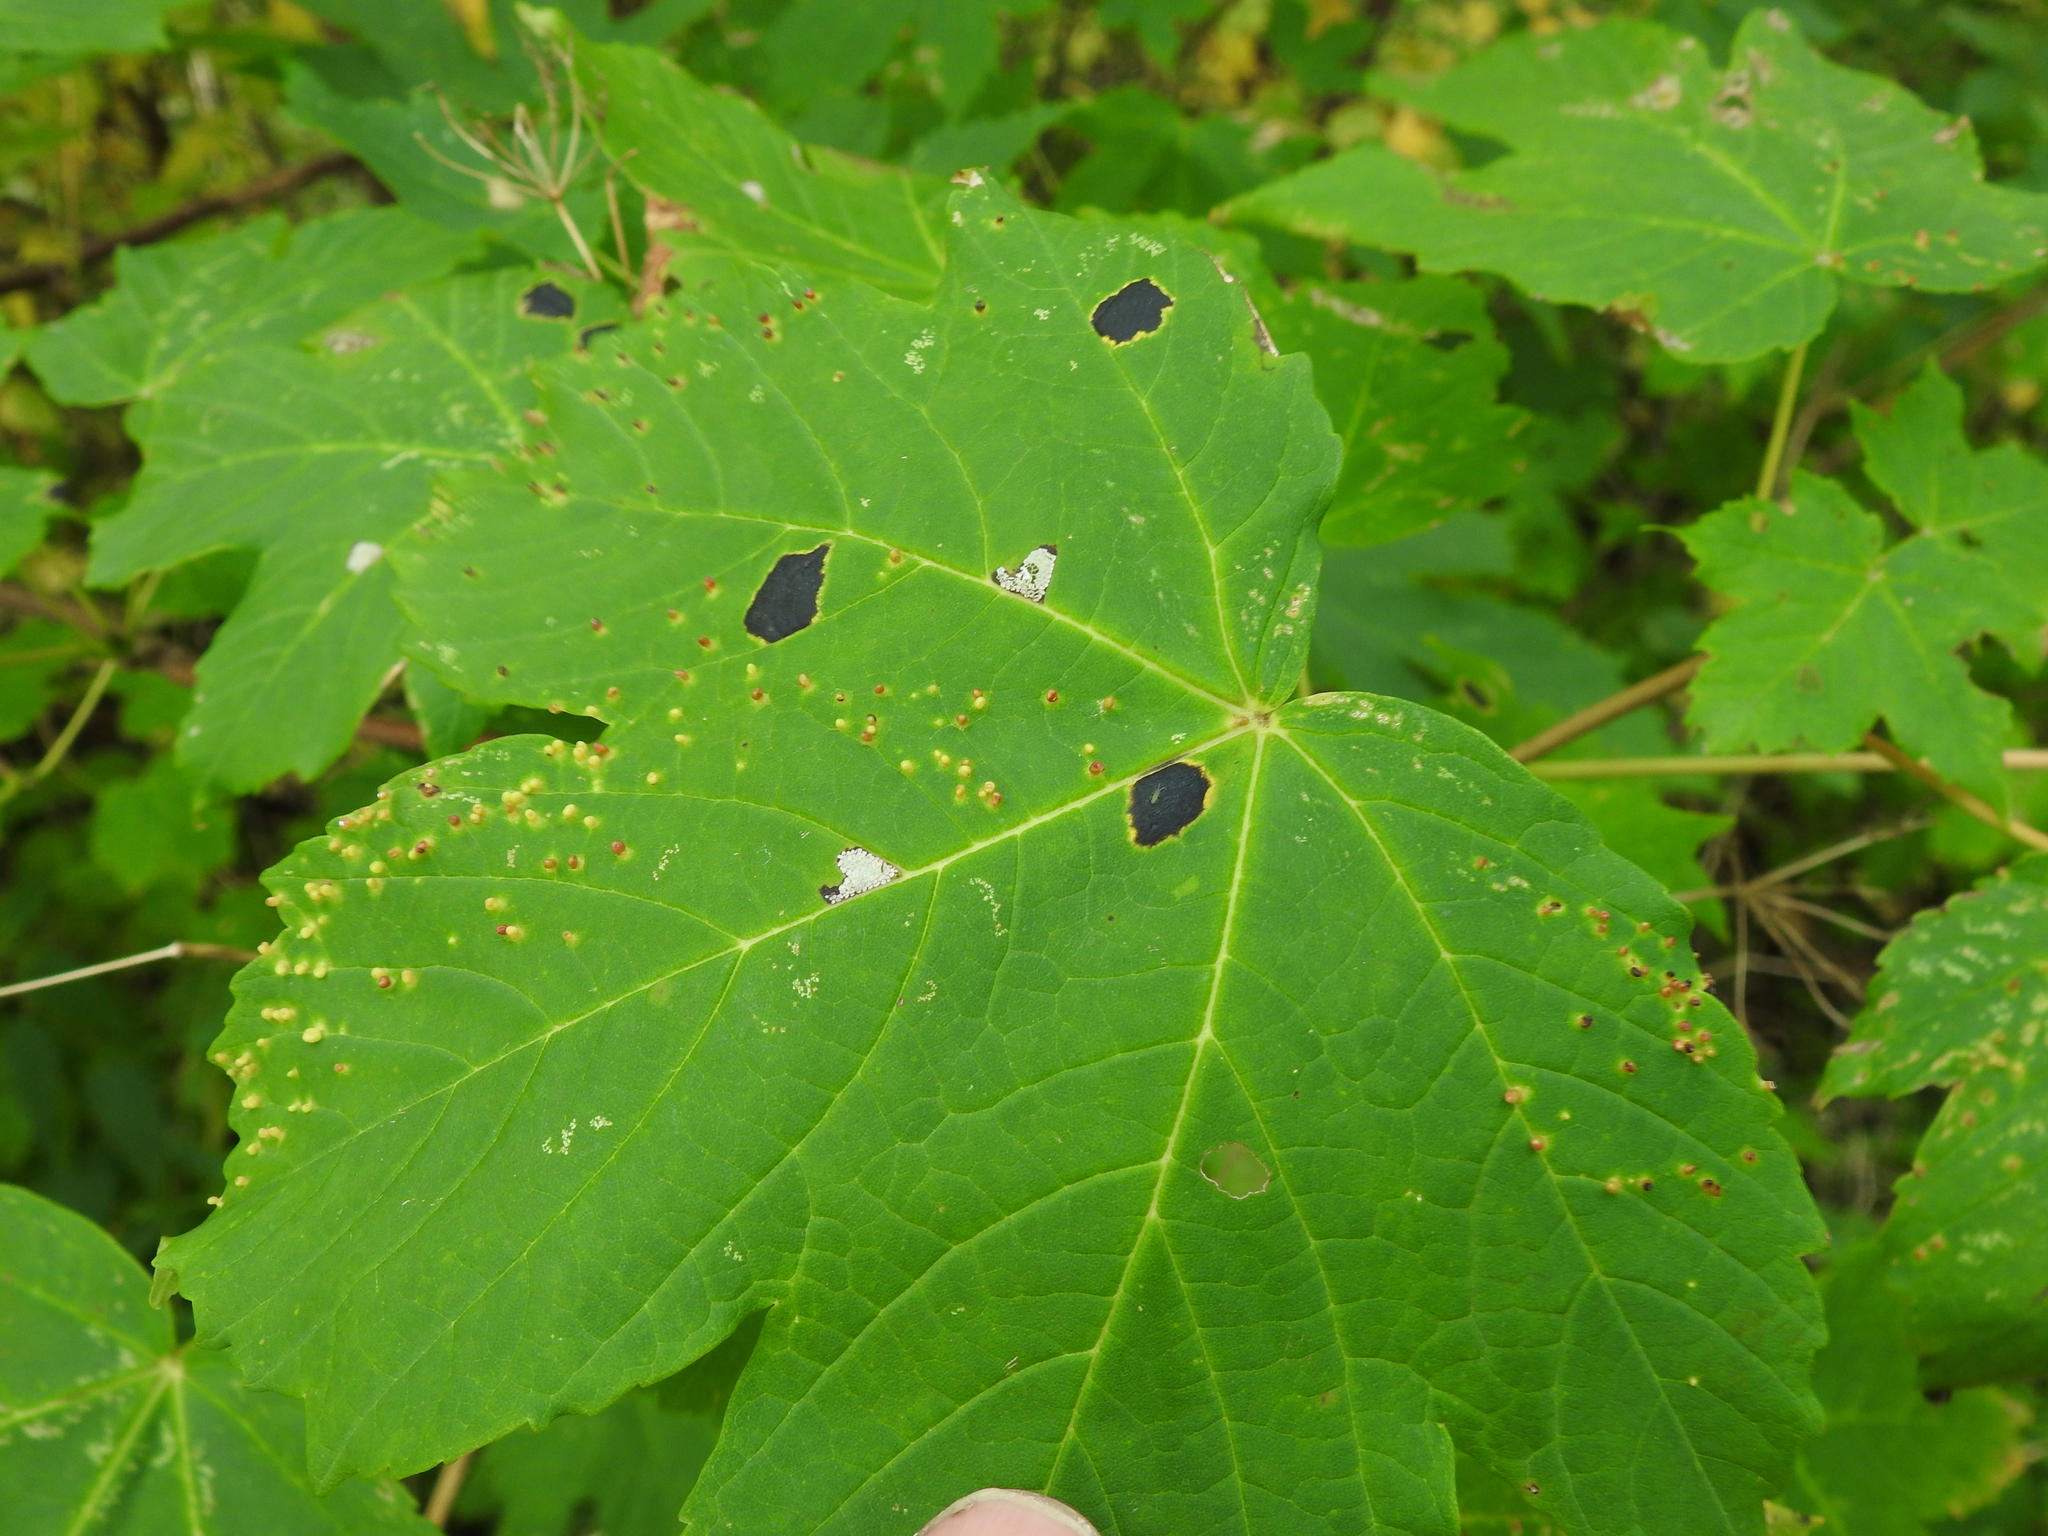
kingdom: Fungi
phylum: Ascomycota
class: Leotiomycetes
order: Rhytismatales
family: Rhytismataceae
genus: Rhytisma
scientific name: Rhytisma acerinum
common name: European tar spot
